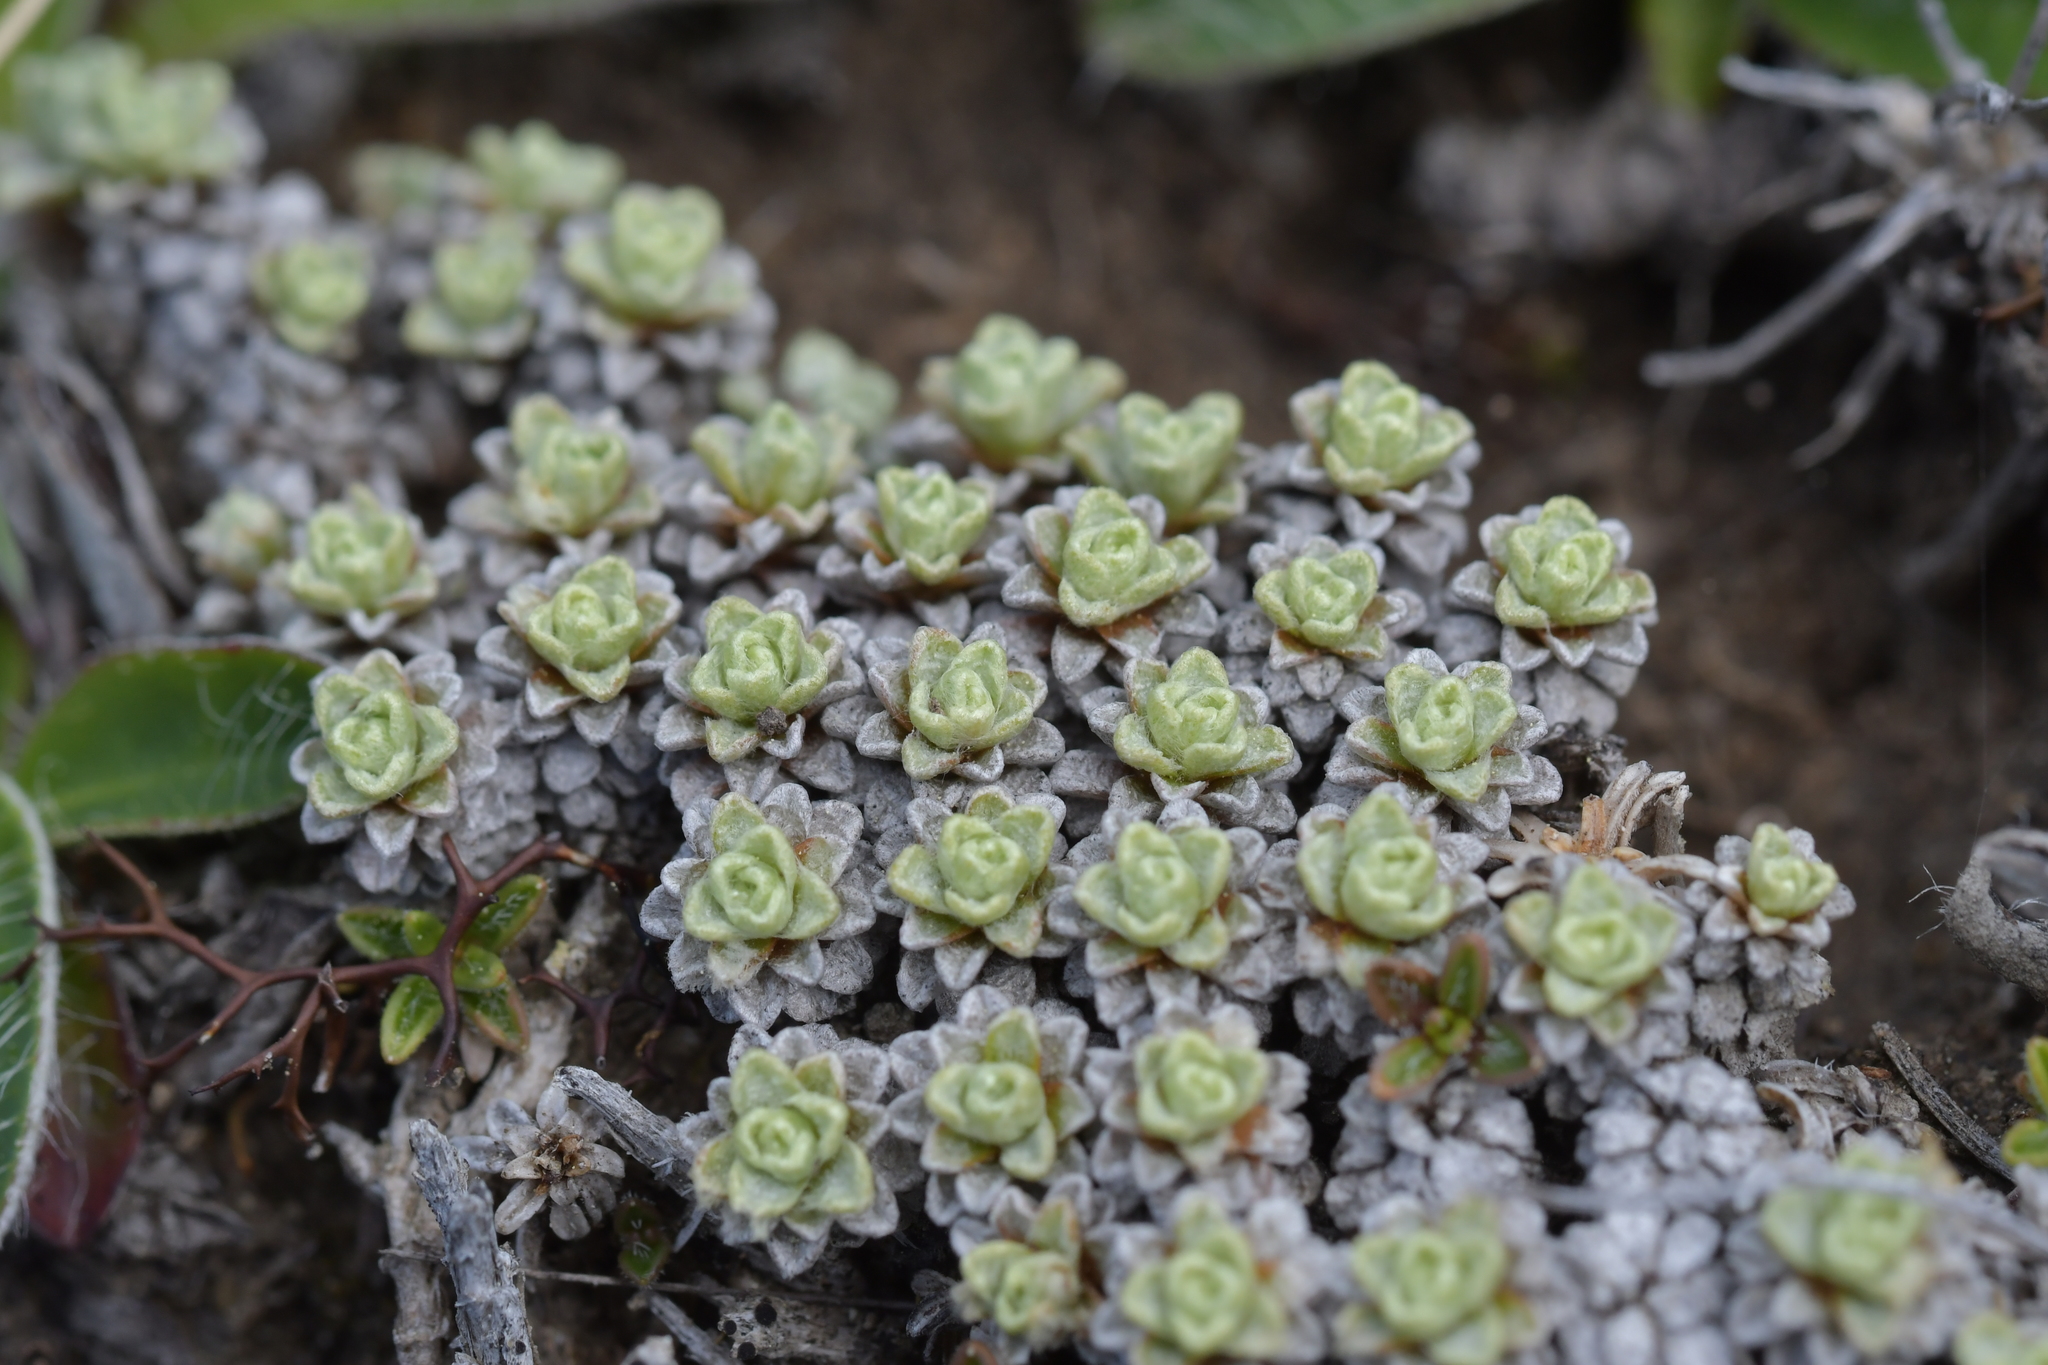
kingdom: Plantae
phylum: Tracheophyta
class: Magnoliopsida
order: Asterales
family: Asteraceae
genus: Raoulia
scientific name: Raoulia parkii
